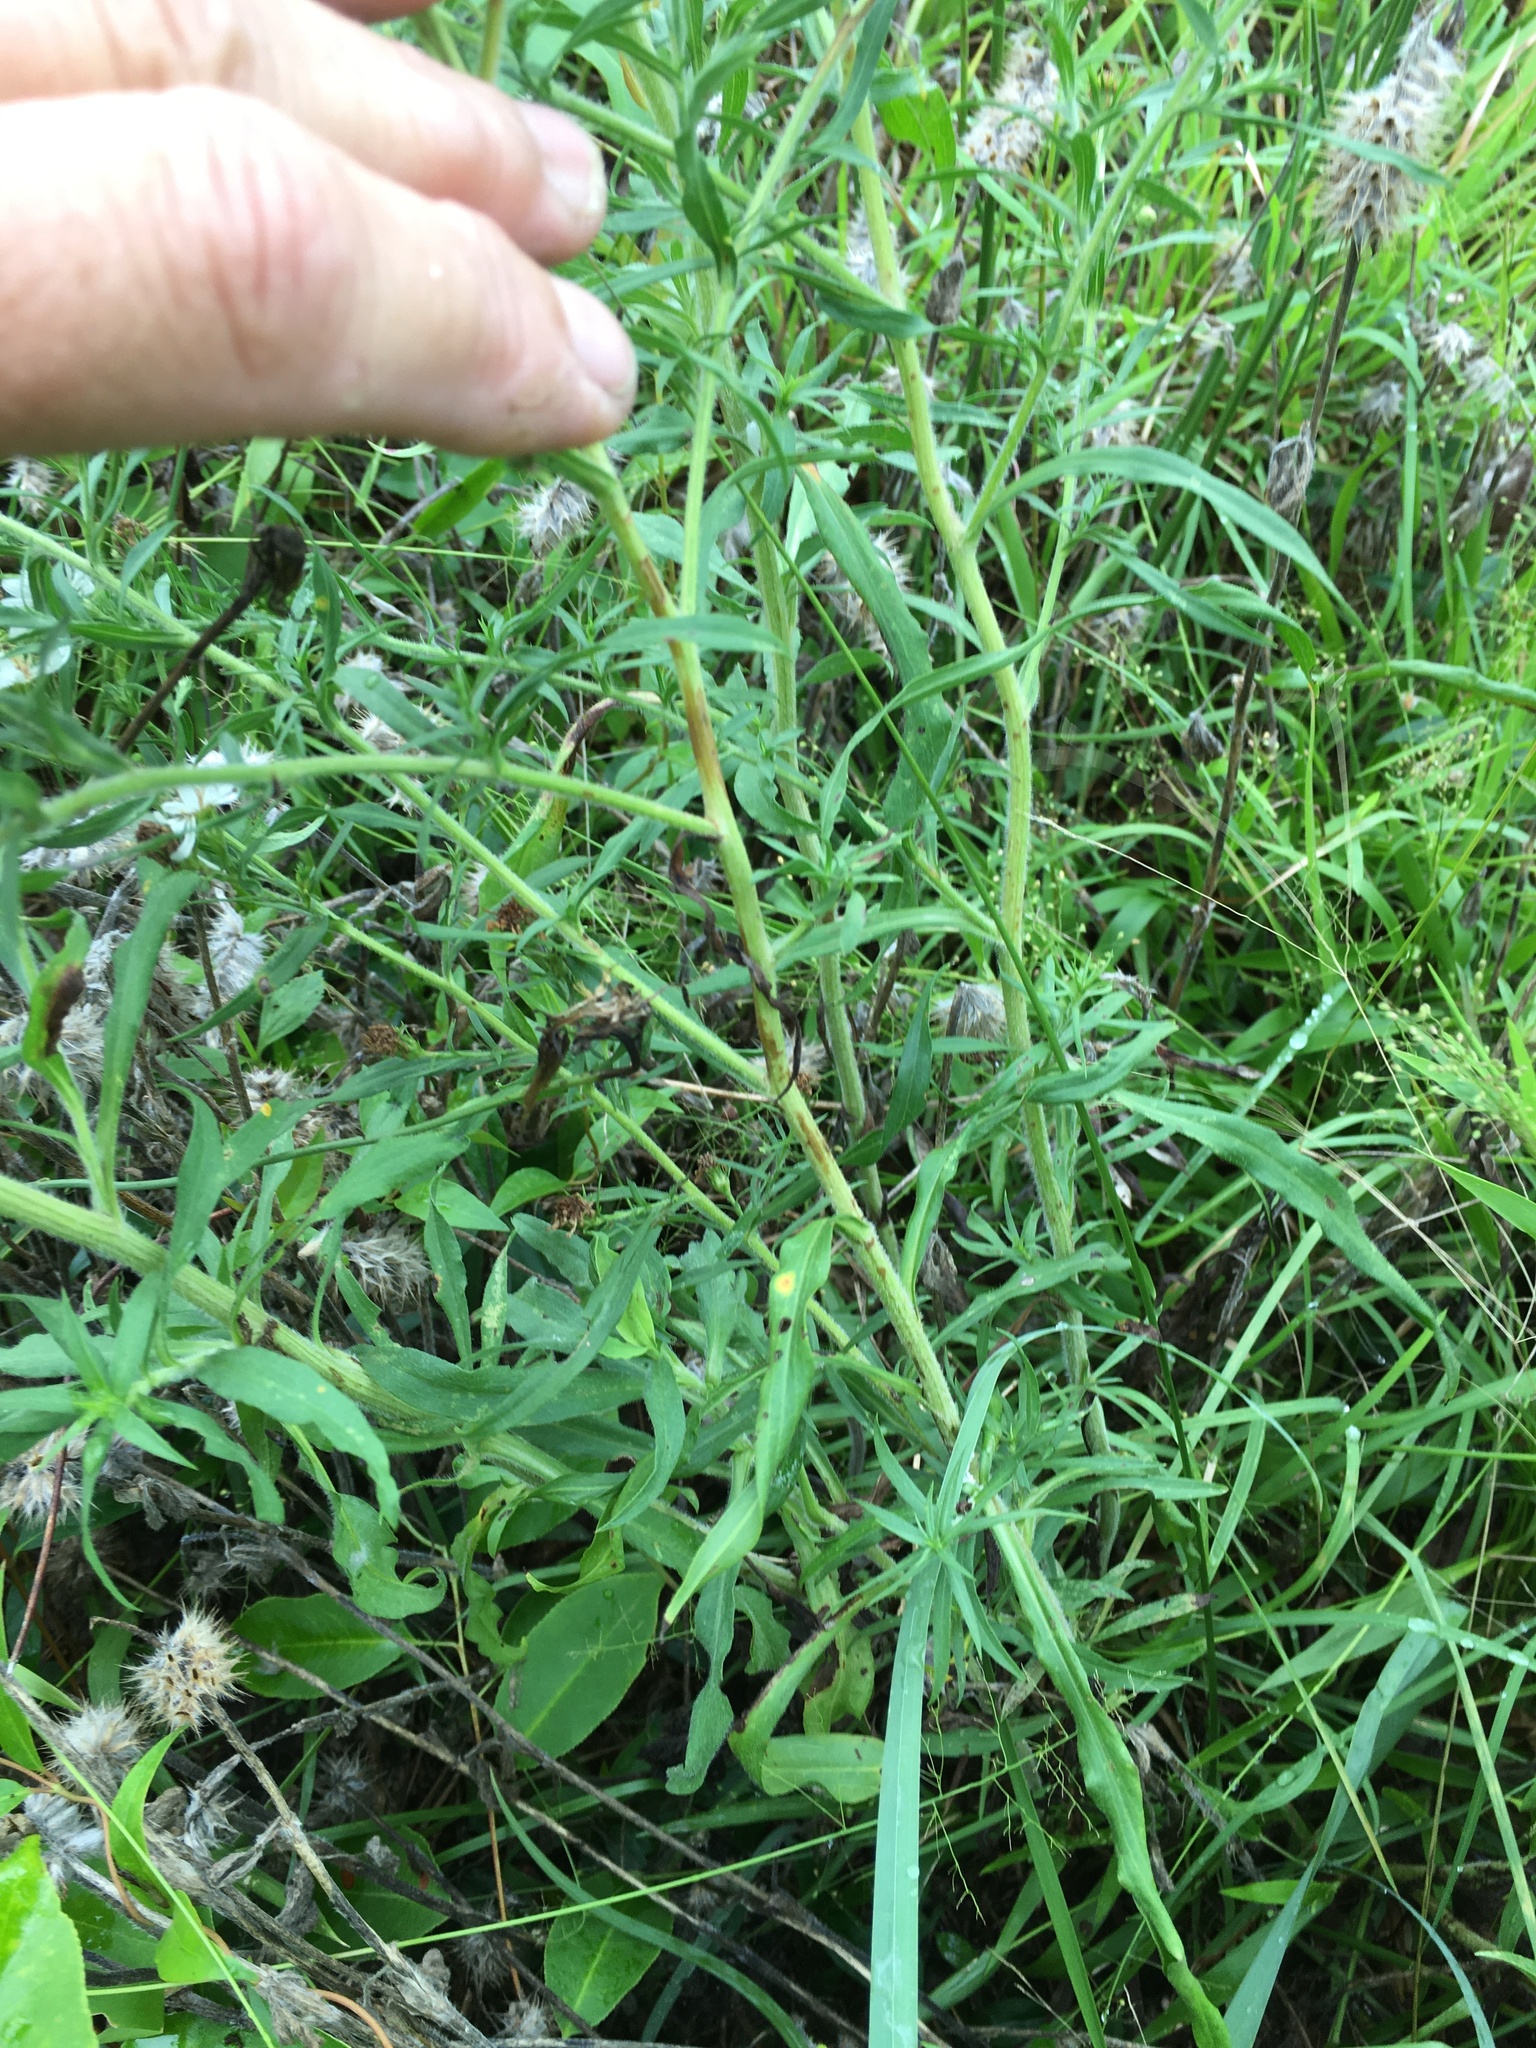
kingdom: Plantae
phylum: Tracheophyta
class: Magnoliopsida
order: Asterales
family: Asteraceae
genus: Symphyotrichum
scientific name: Symphyotrichum pilosum
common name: Awl aster
